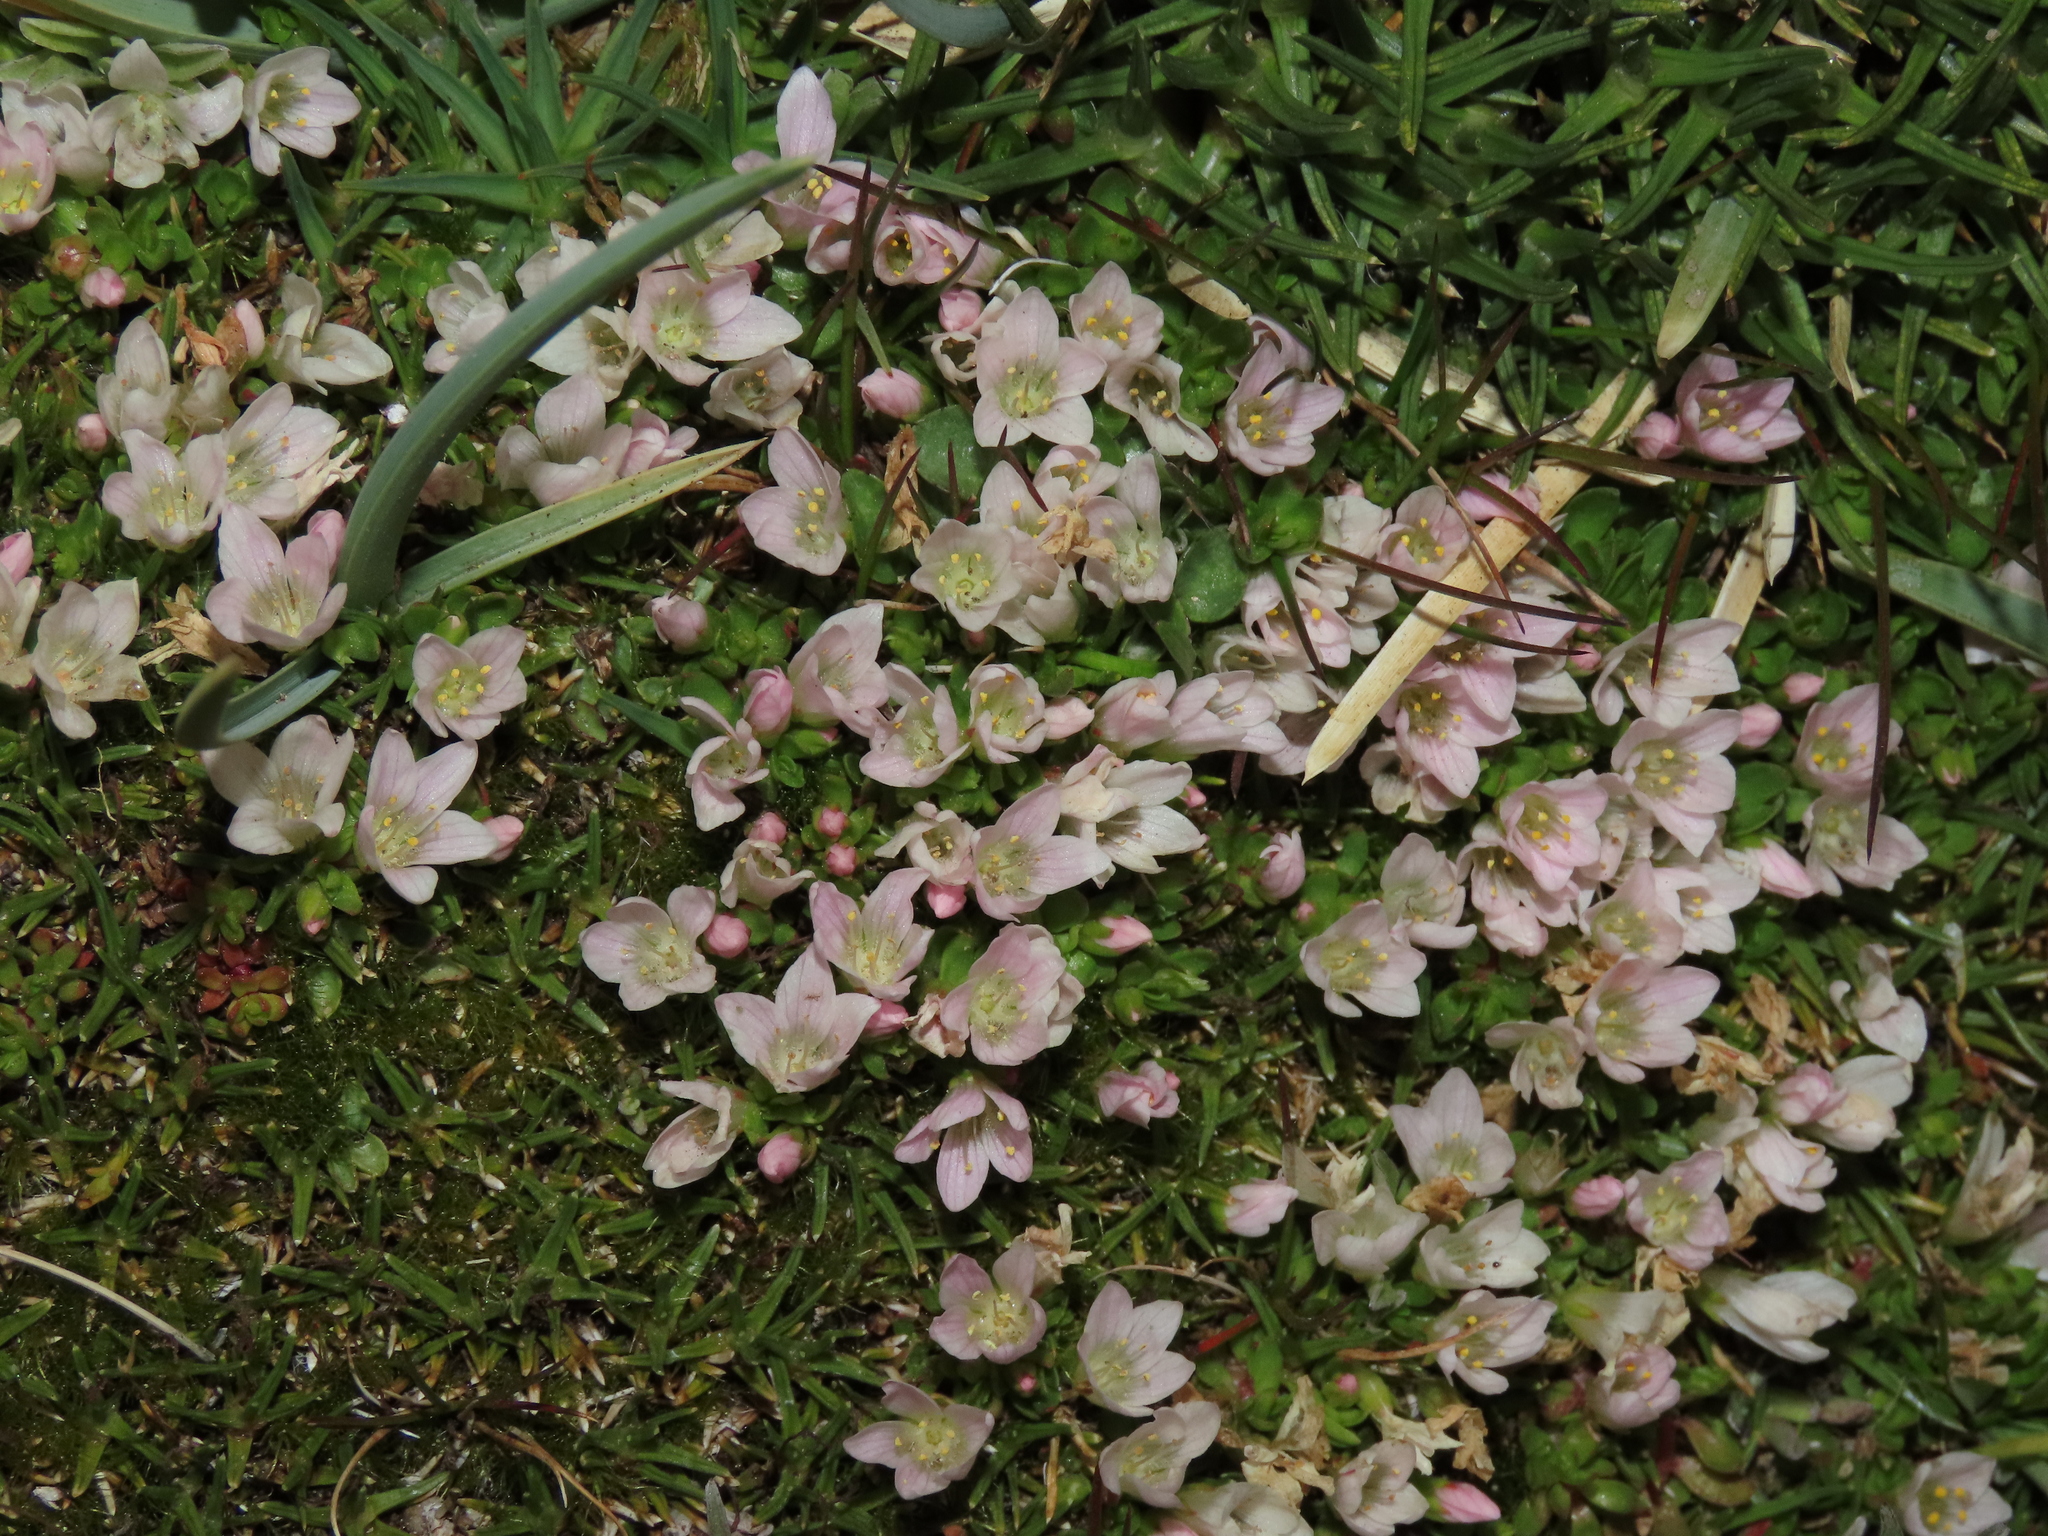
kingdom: Plantae
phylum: Tracheophyta
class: Magnoliopsida
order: Ericales
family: Primulaceae
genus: Lysimachia
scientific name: Lysimachia amoena
